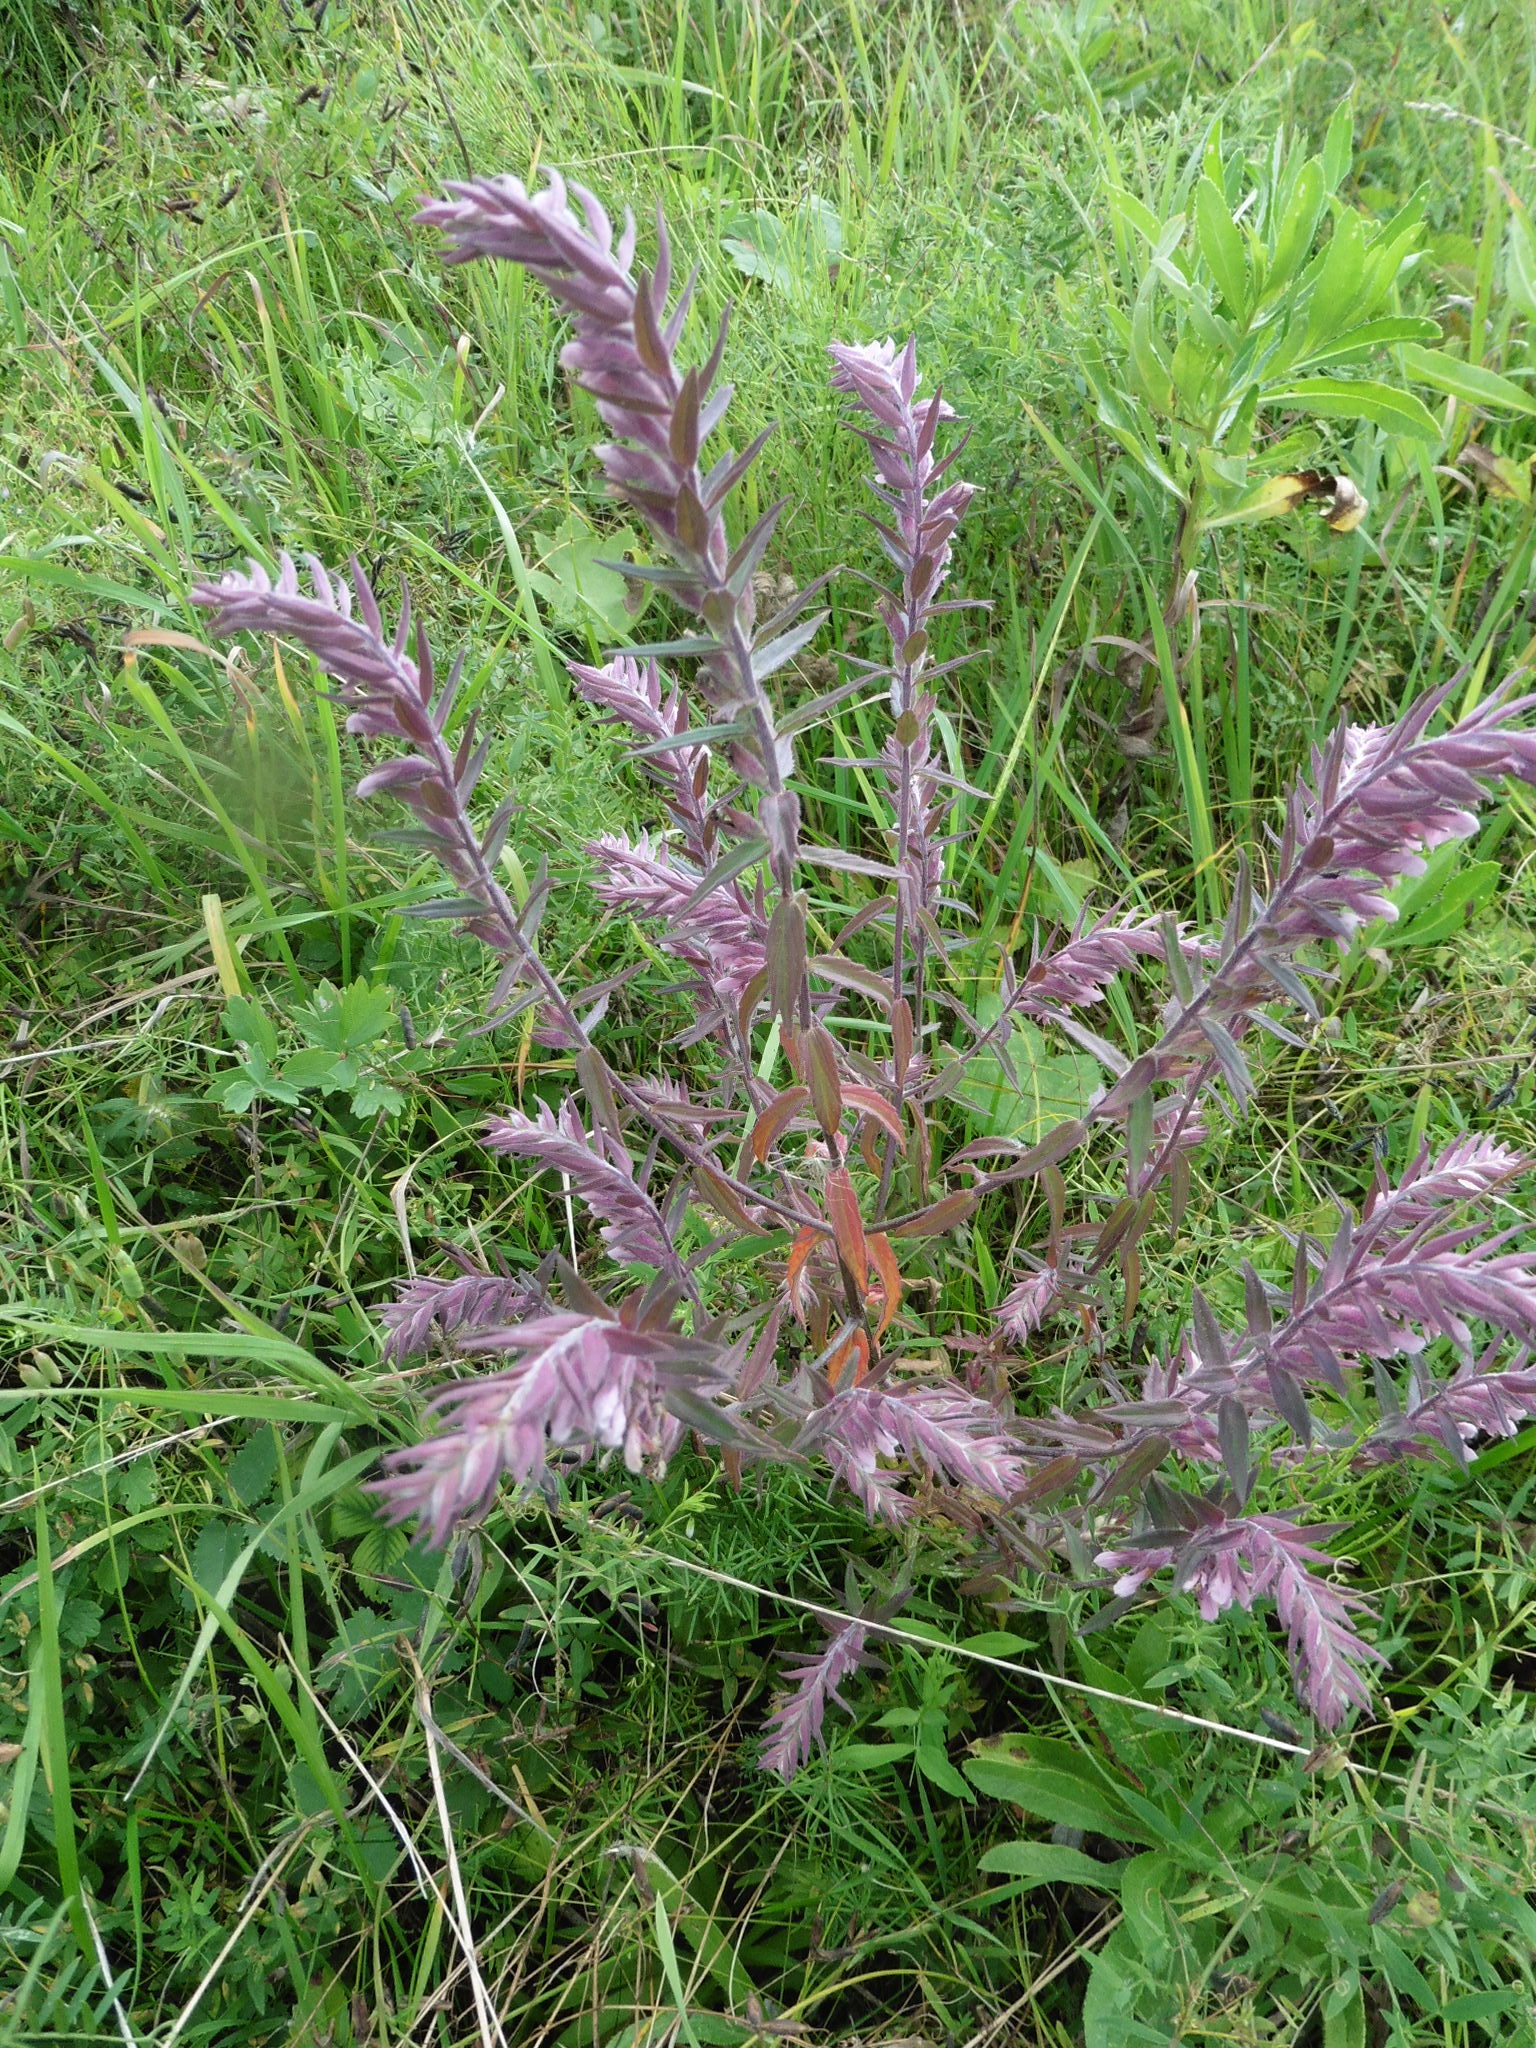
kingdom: Plantae
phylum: Tracheophyta
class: Magnoliopsida
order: Lamiales
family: Orobanchaceae
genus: Odontites
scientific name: Odontites vulgaris
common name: Broomrape
